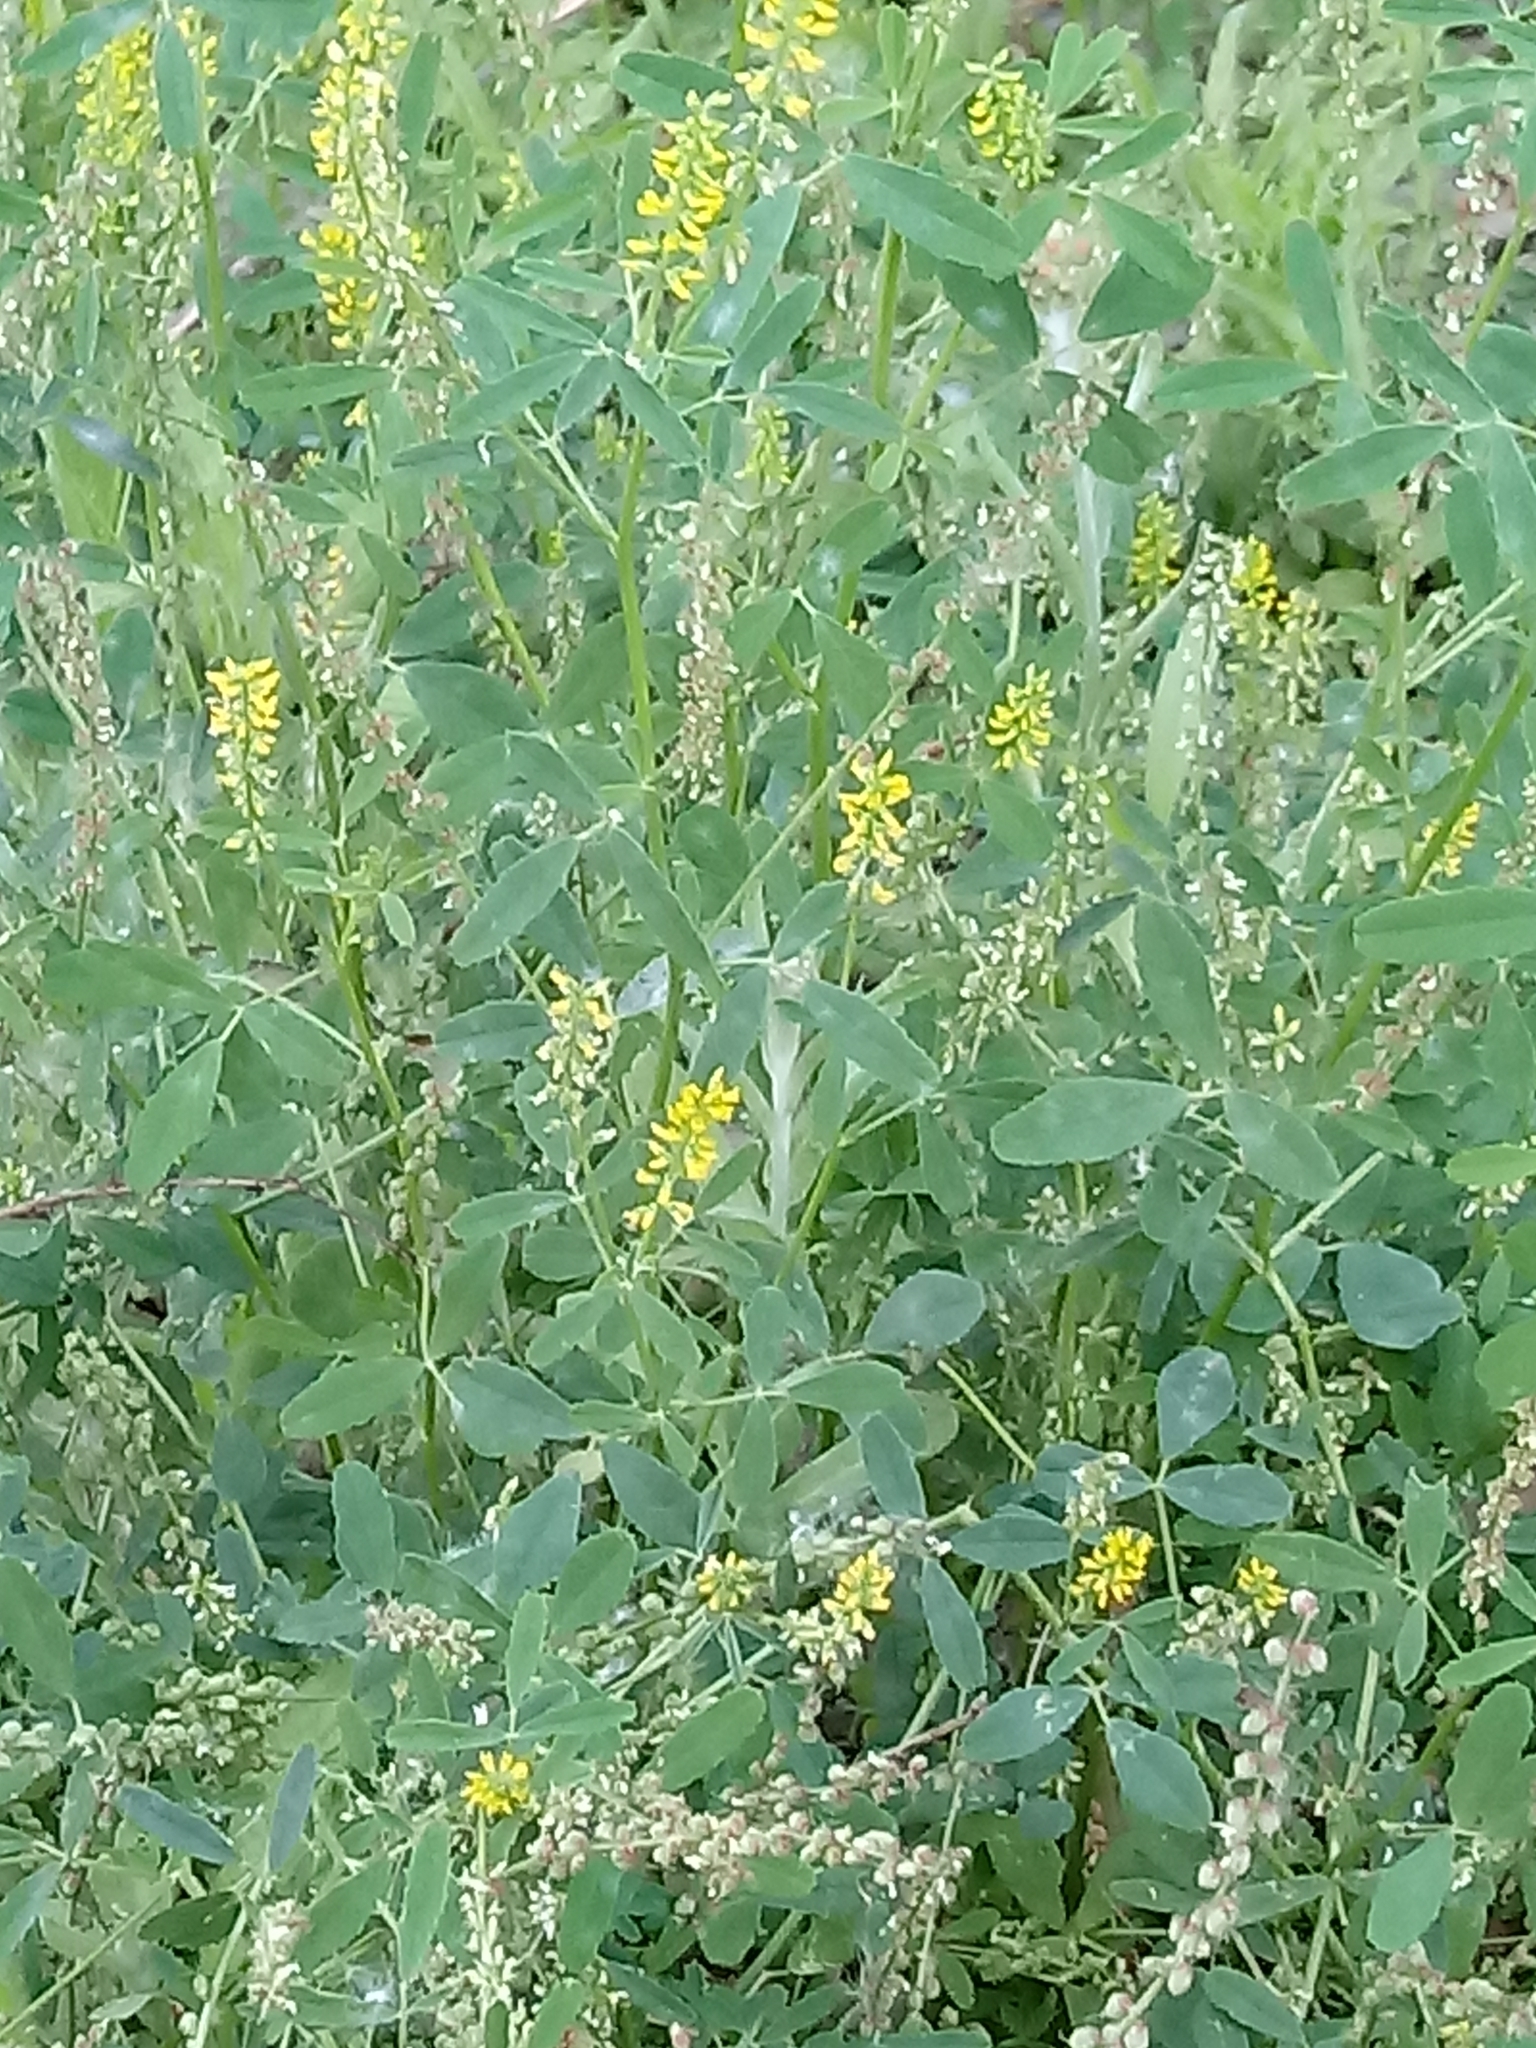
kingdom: Plantae
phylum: Tracheophyta
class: Magnoliopsida
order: Fabales
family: Fabaceae
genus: Melilotus
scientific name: Melilotus indicus
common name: Small melilot
